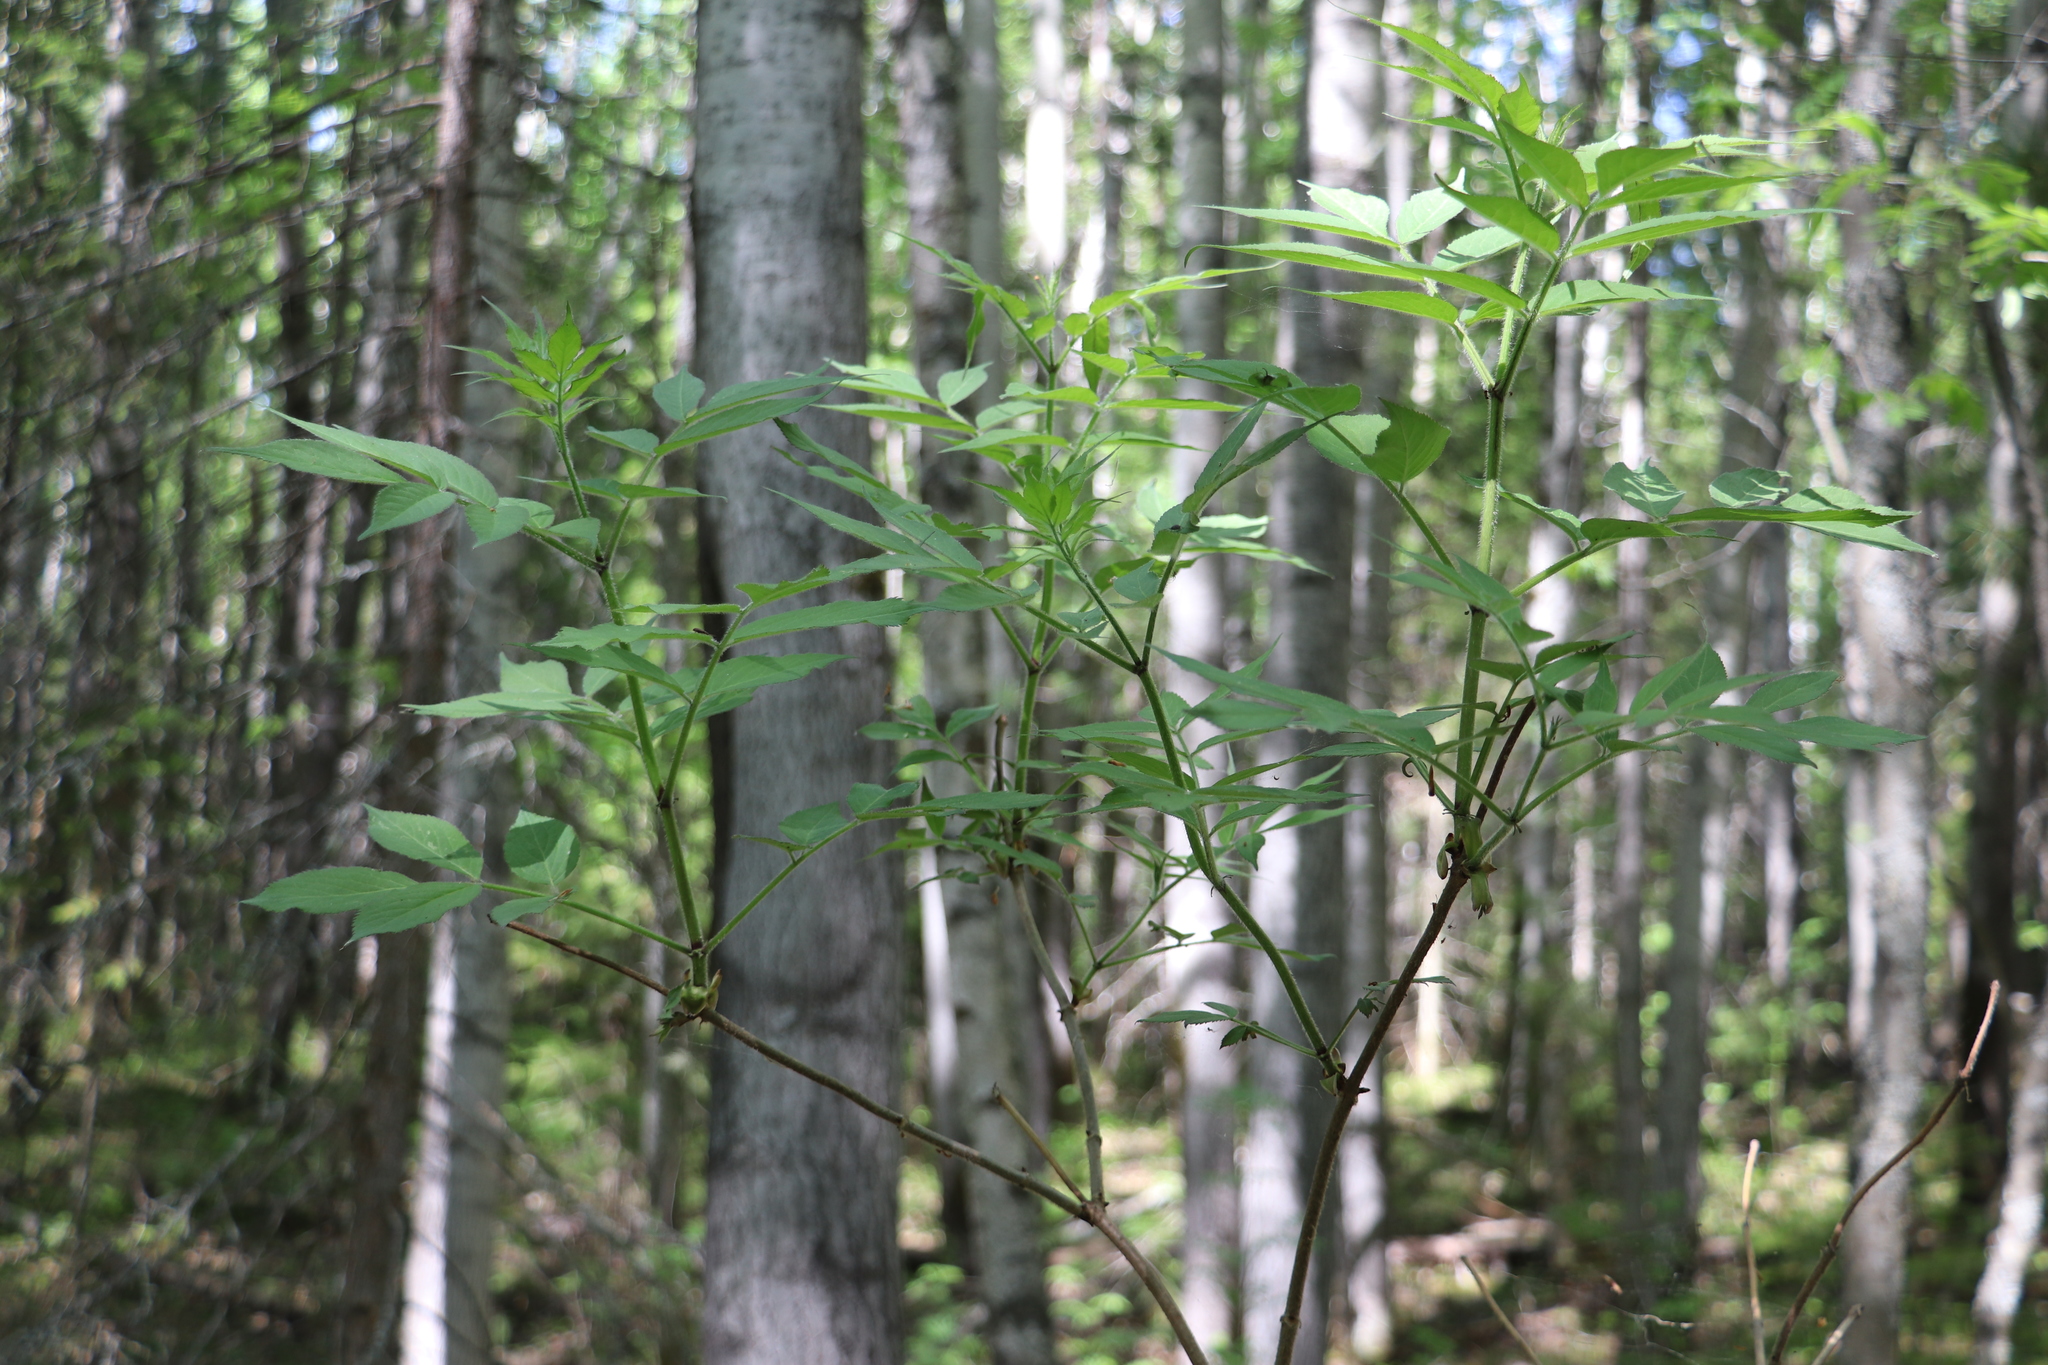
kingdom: Plantae
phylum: Tracheophyta
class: Magnoliopsida
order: Dipsacales
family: Viburnaceae
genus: Sambucus
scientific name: Sambucus sibirica
